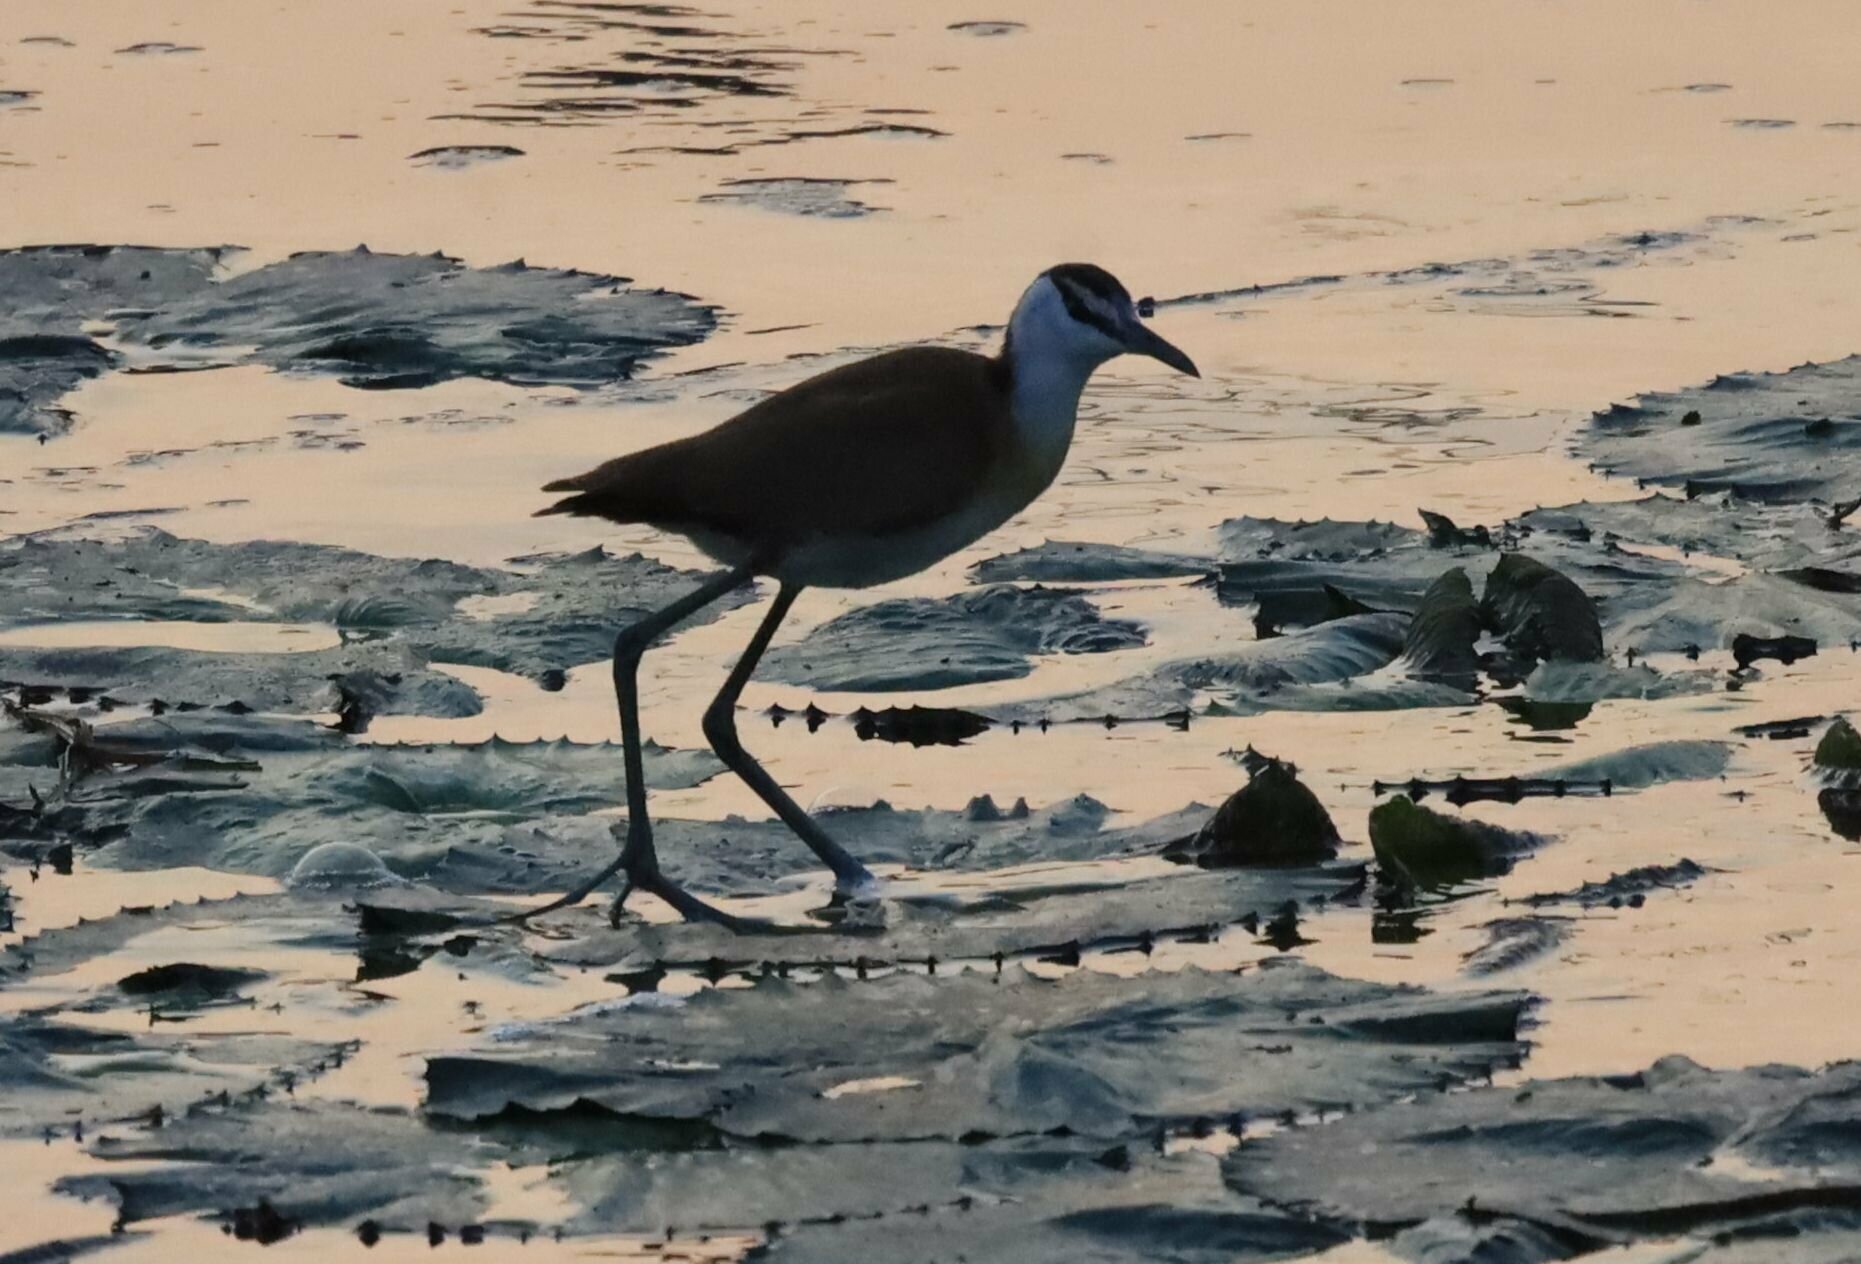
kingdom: Animalia
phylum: Chordata
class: Aves
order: Charadriiformes
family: Jacanidae
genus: Actophilornis
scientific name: Actophilornis africanus
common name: African jacana
